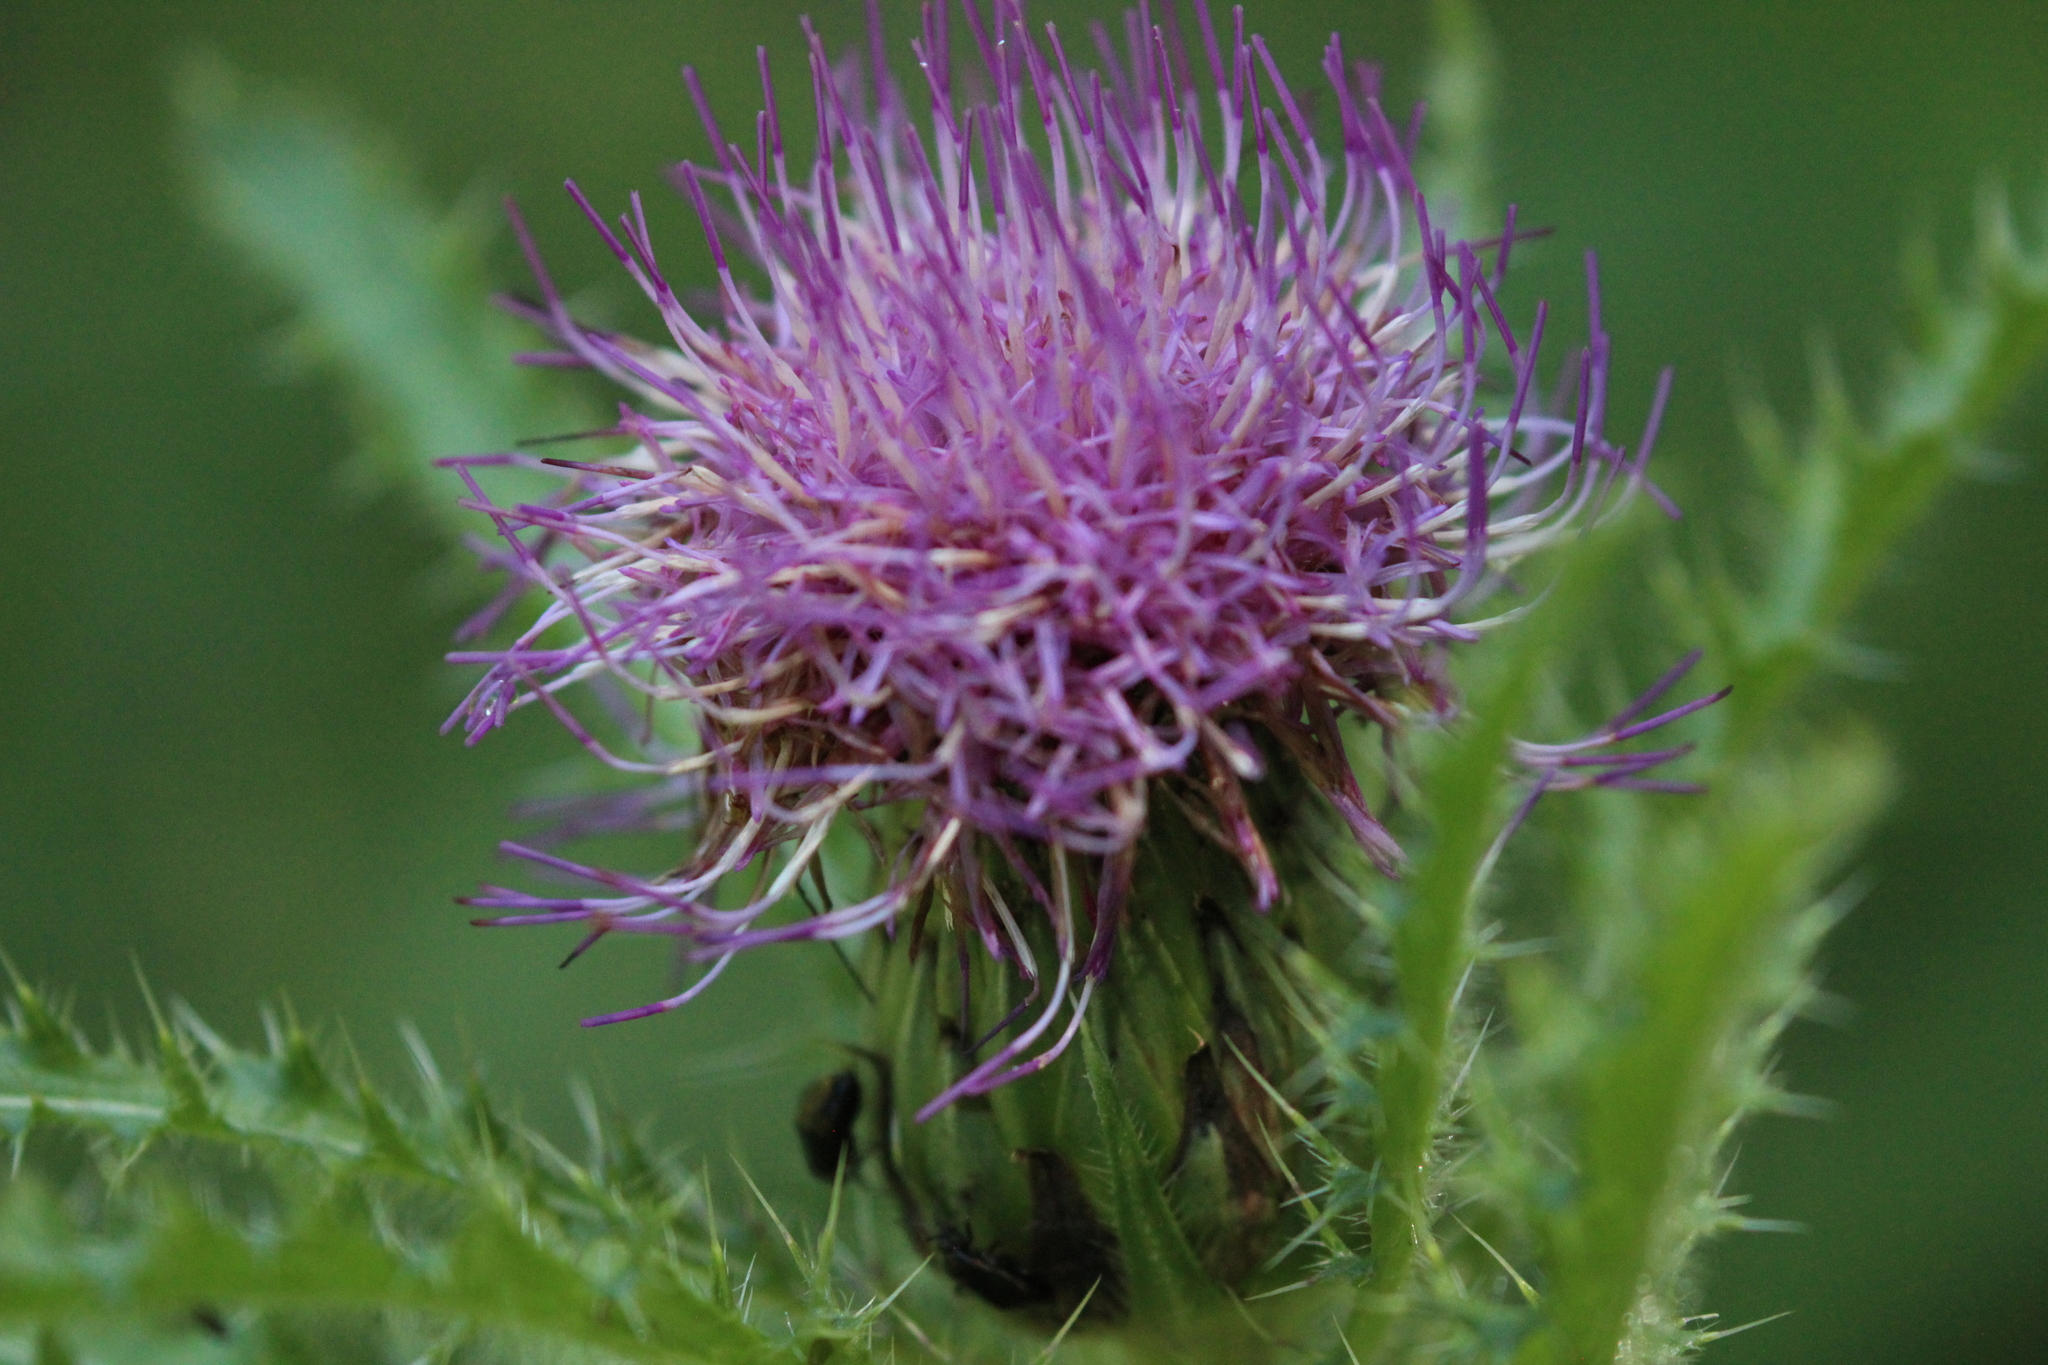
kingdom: Plantae
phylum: Tracheophyta
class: Magnoliopsida
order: Asterales
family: Asteraceae
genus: Cirsium
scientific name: Cirsium drummondii
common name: Drummond's thistle
